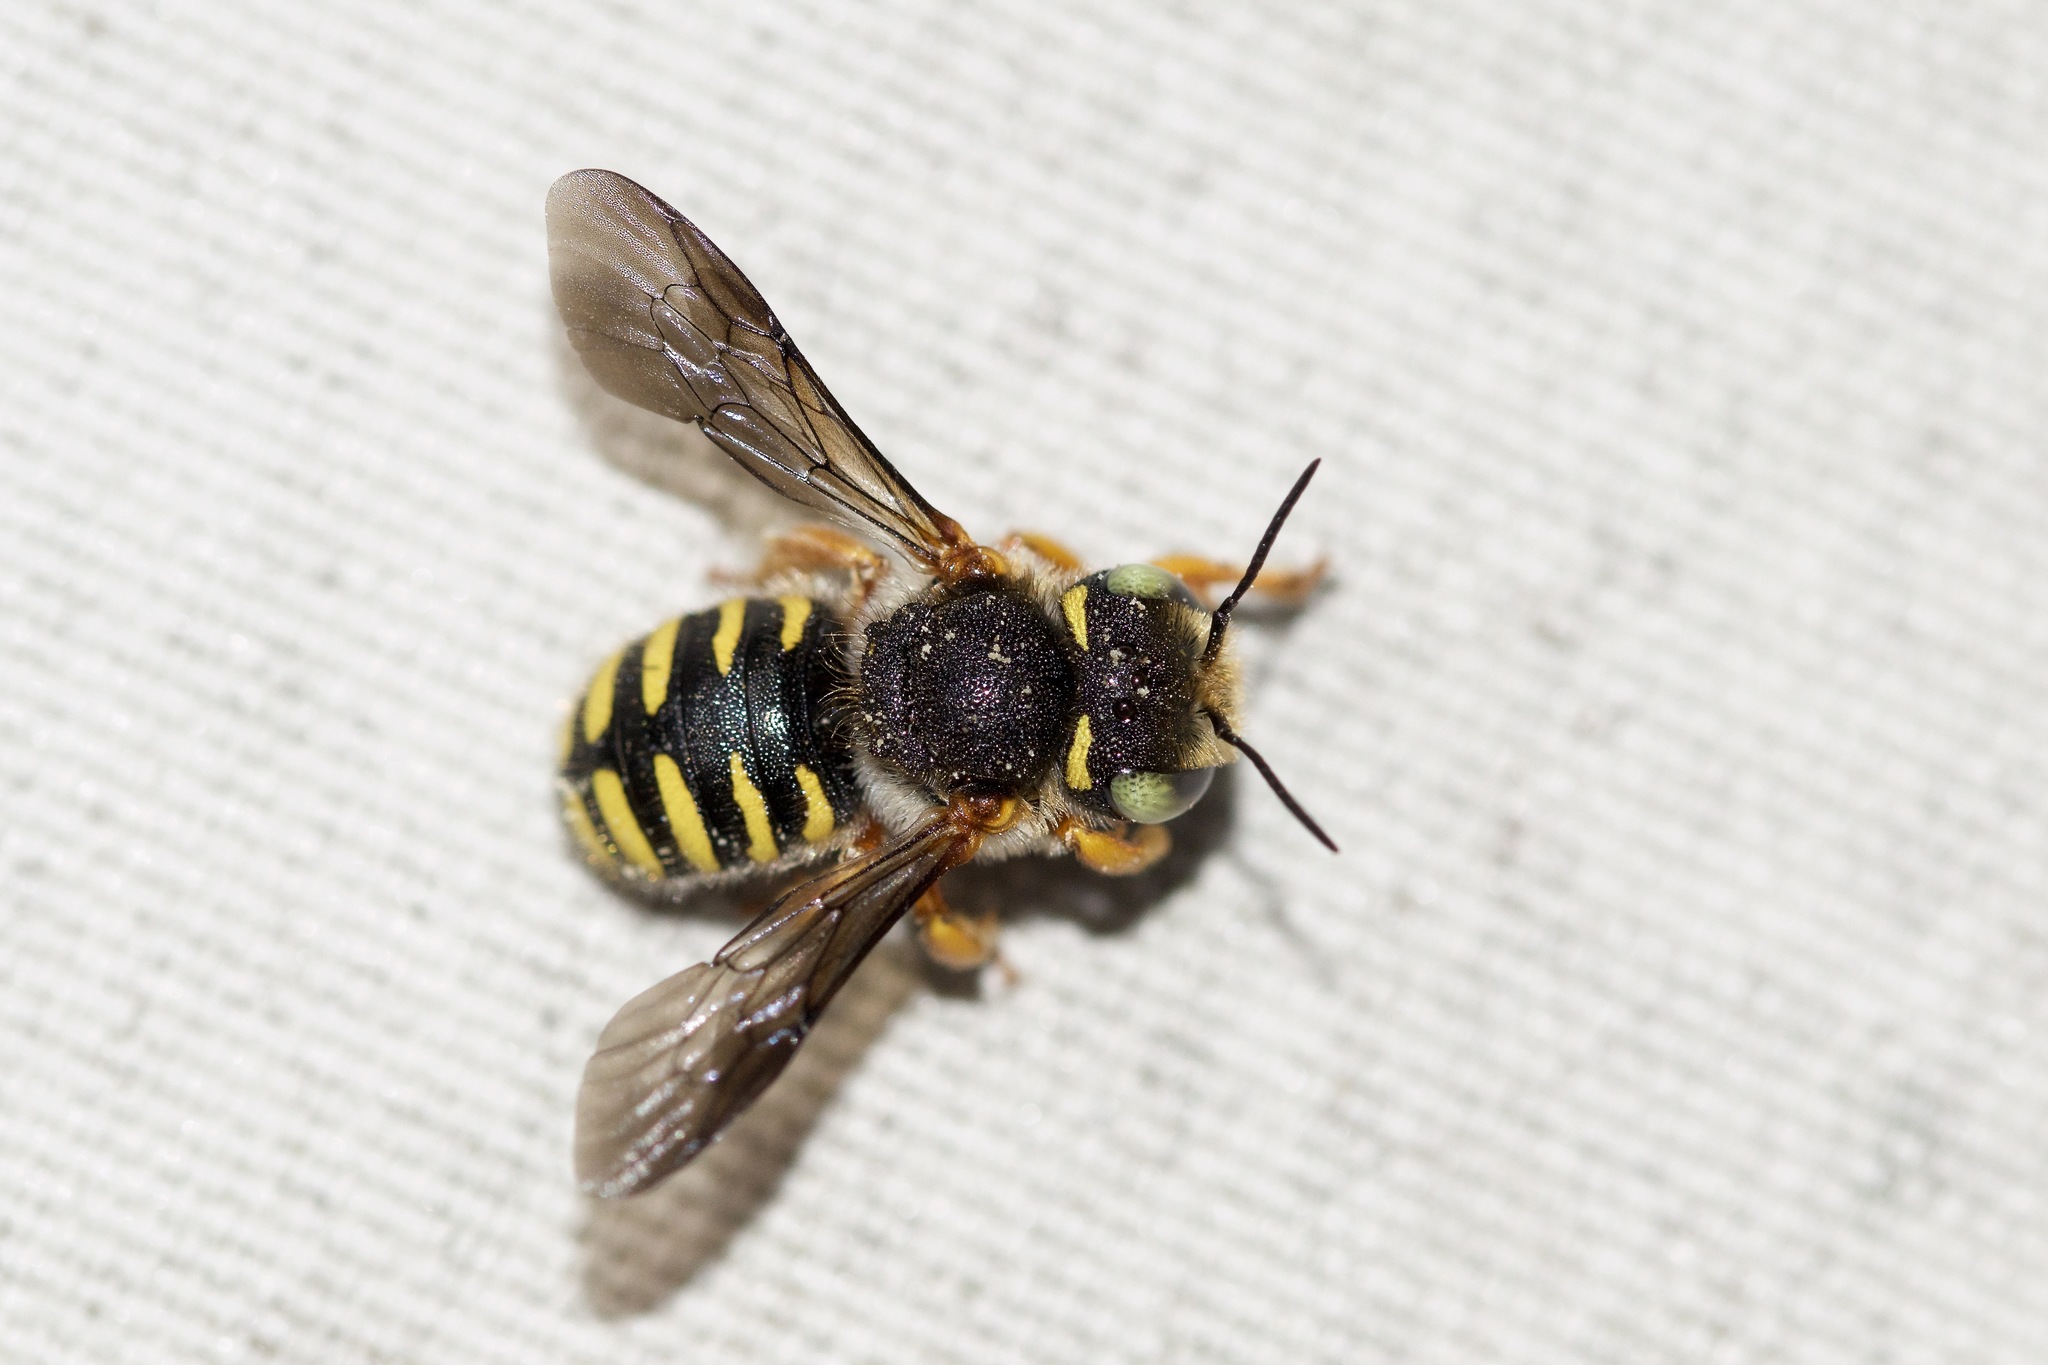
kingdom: Animalia
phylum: Arthropoda
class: Insecta
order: Hymenoptera
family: Megachilidae
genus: Anthidium
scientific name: Anthidium oblongatum
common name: Oblong wool carder bee
